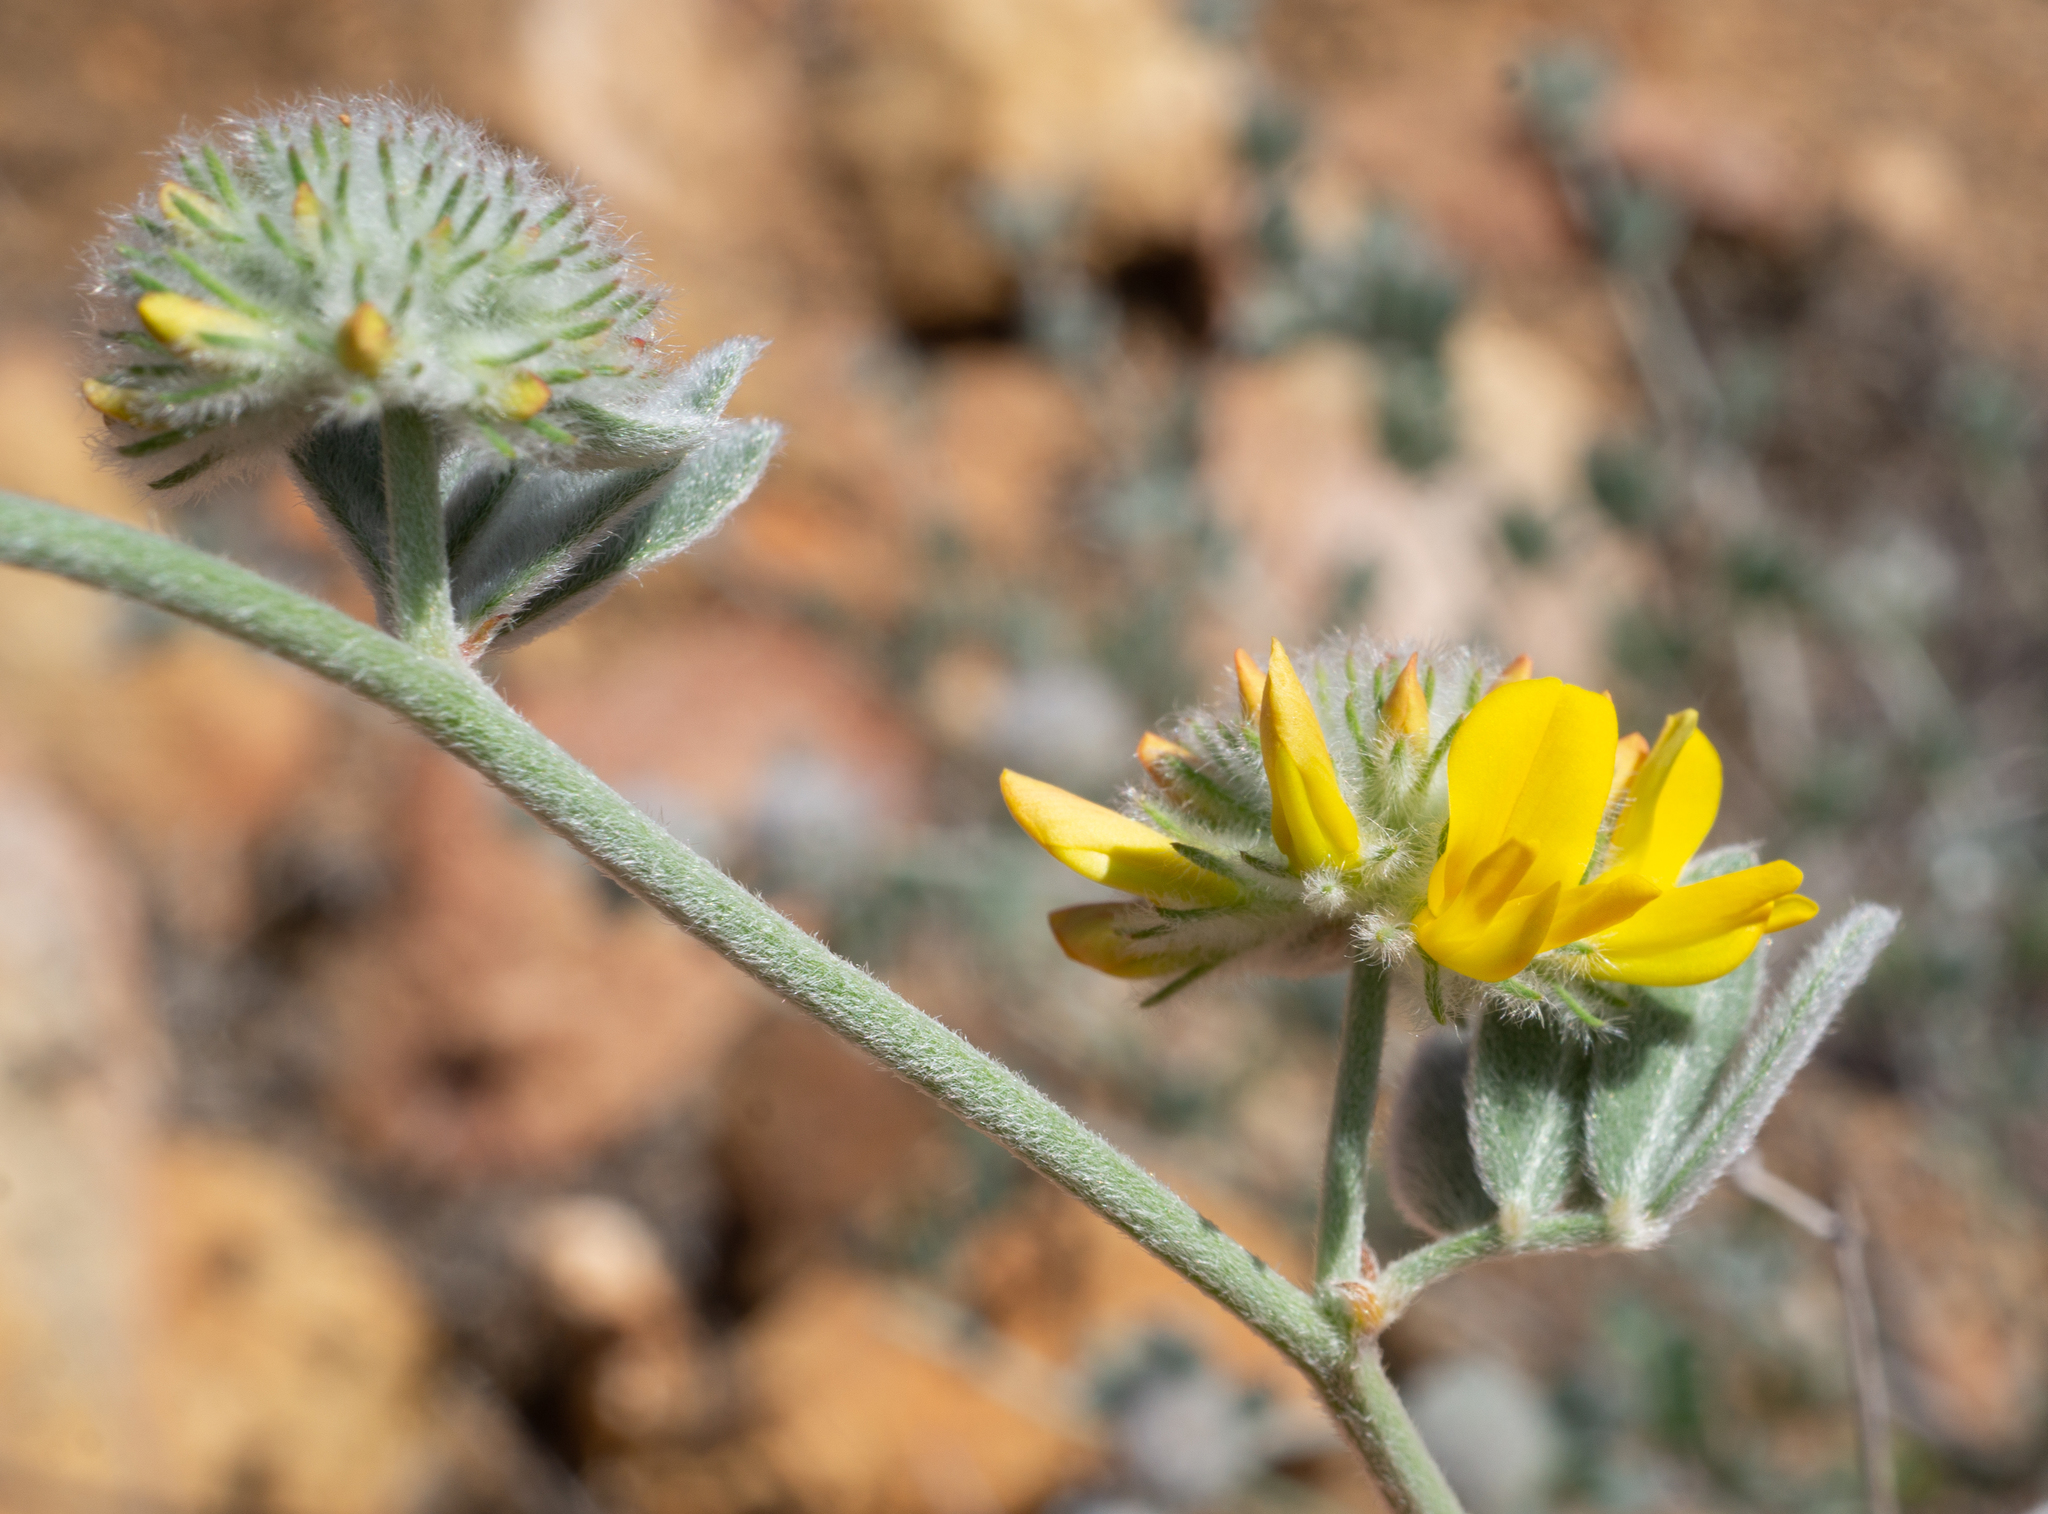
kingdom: Plantae
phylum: Tracheophyta
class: Magnoliopsida
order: Fabales
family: Fabaceae
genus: Acmispon
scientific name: Acmispon argophyllus
